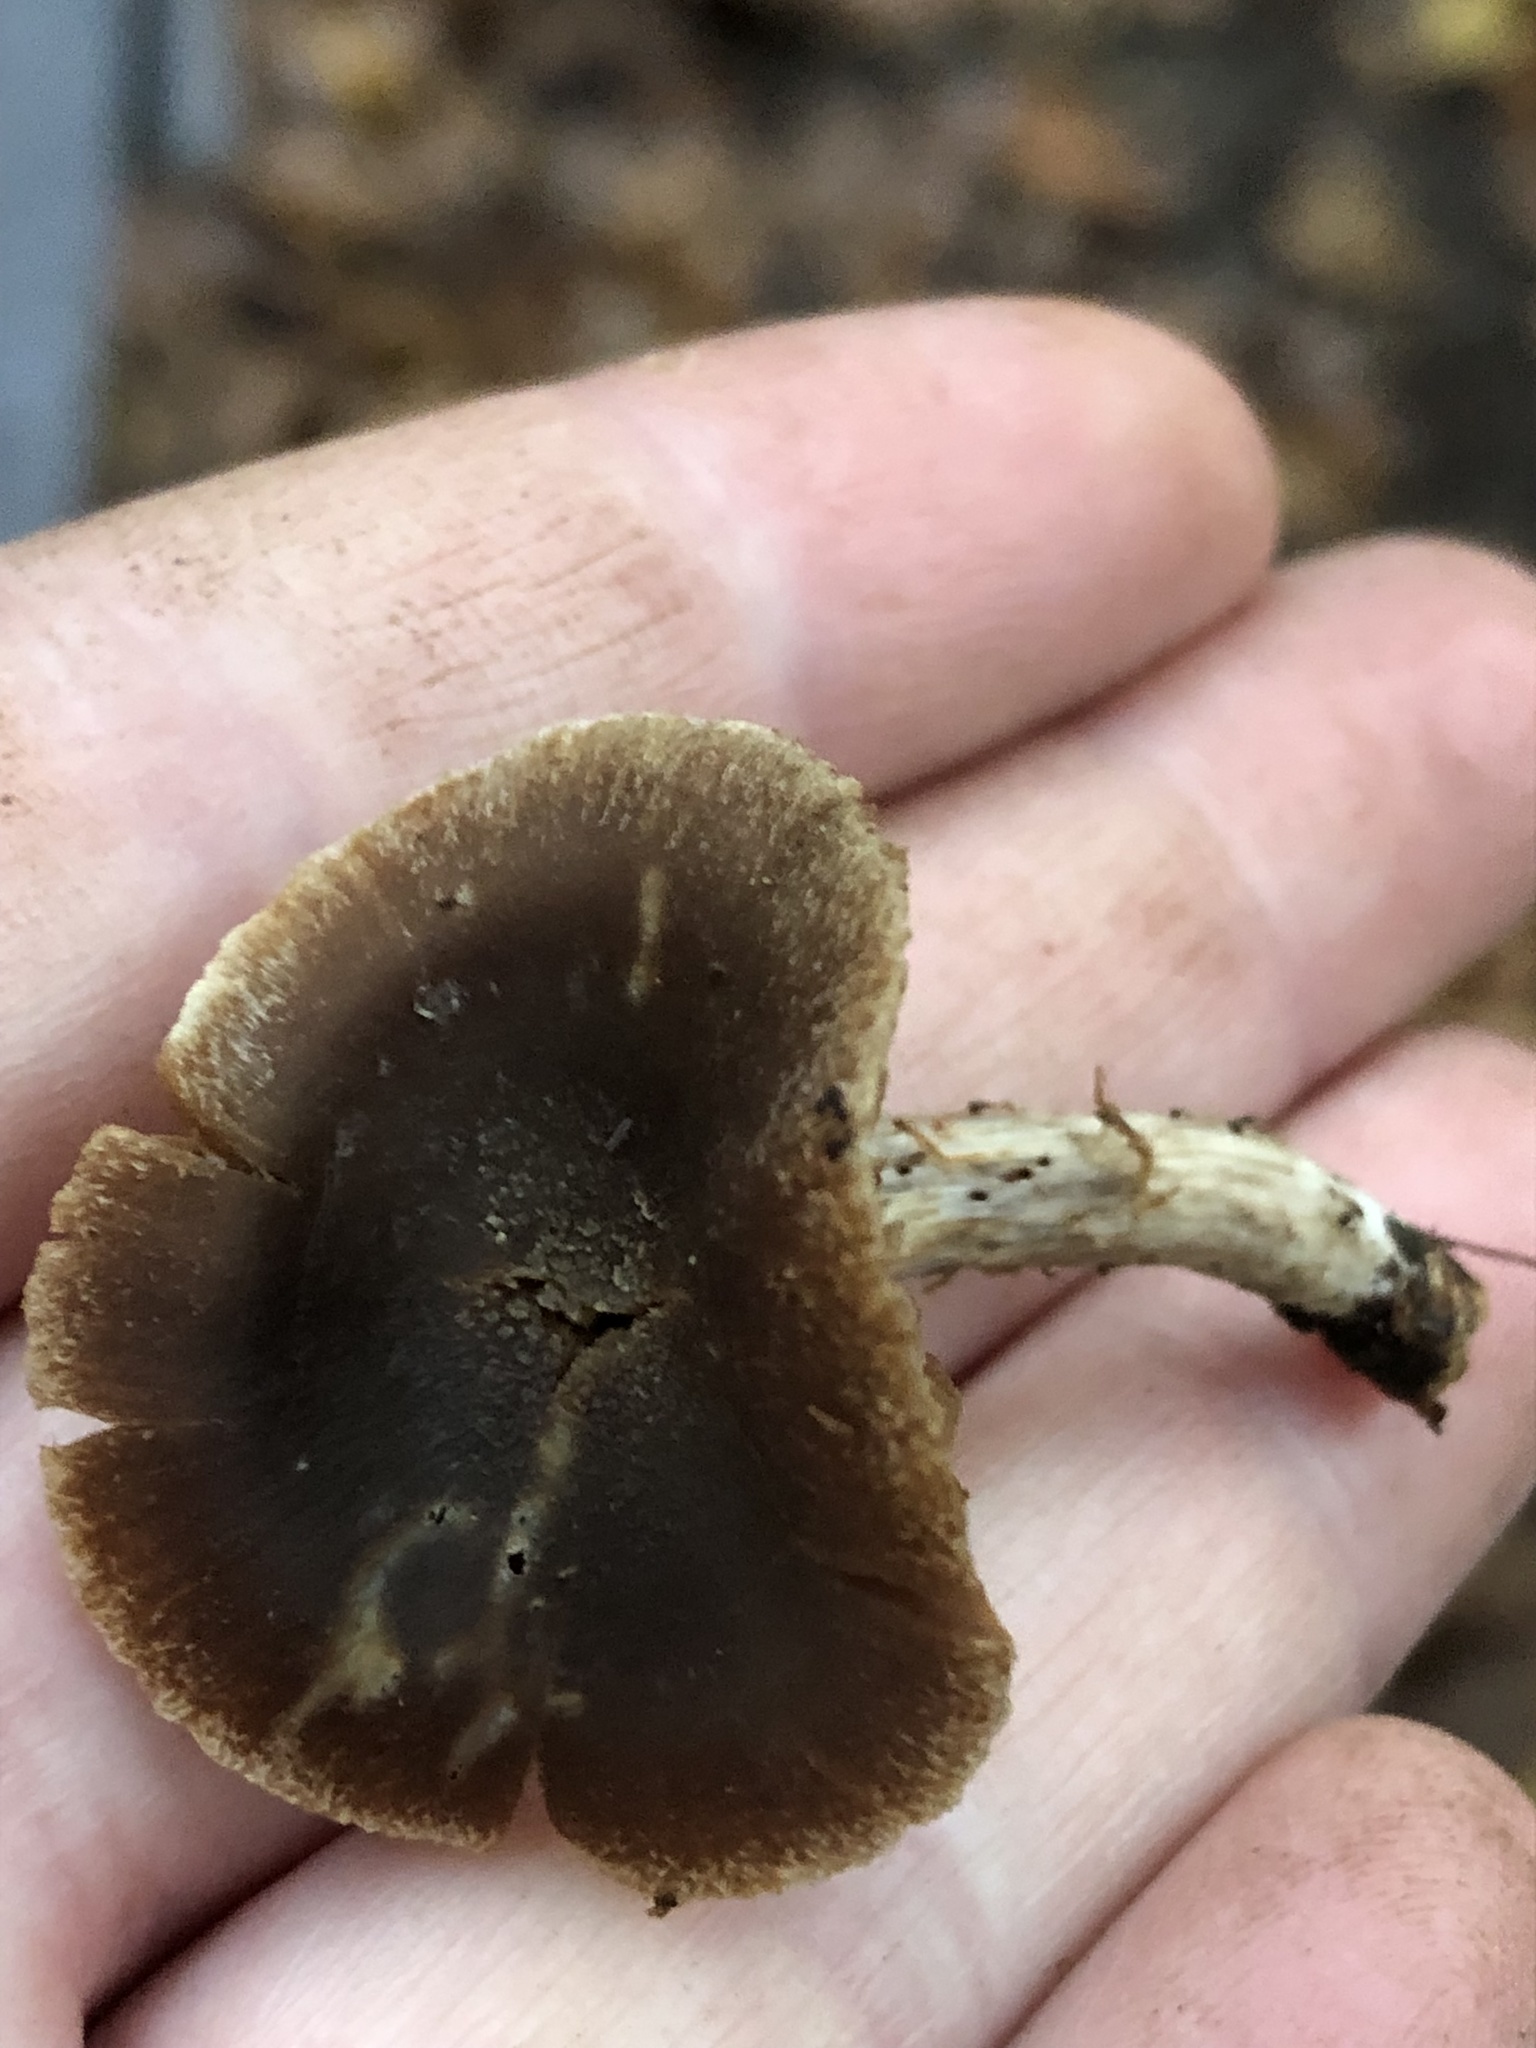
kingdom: Fungi
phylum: Basidiomycota
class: Agaricomycetes
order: Agaricales
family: Strophariaceae
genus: Agrocybe
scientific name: Agrocybe firma
